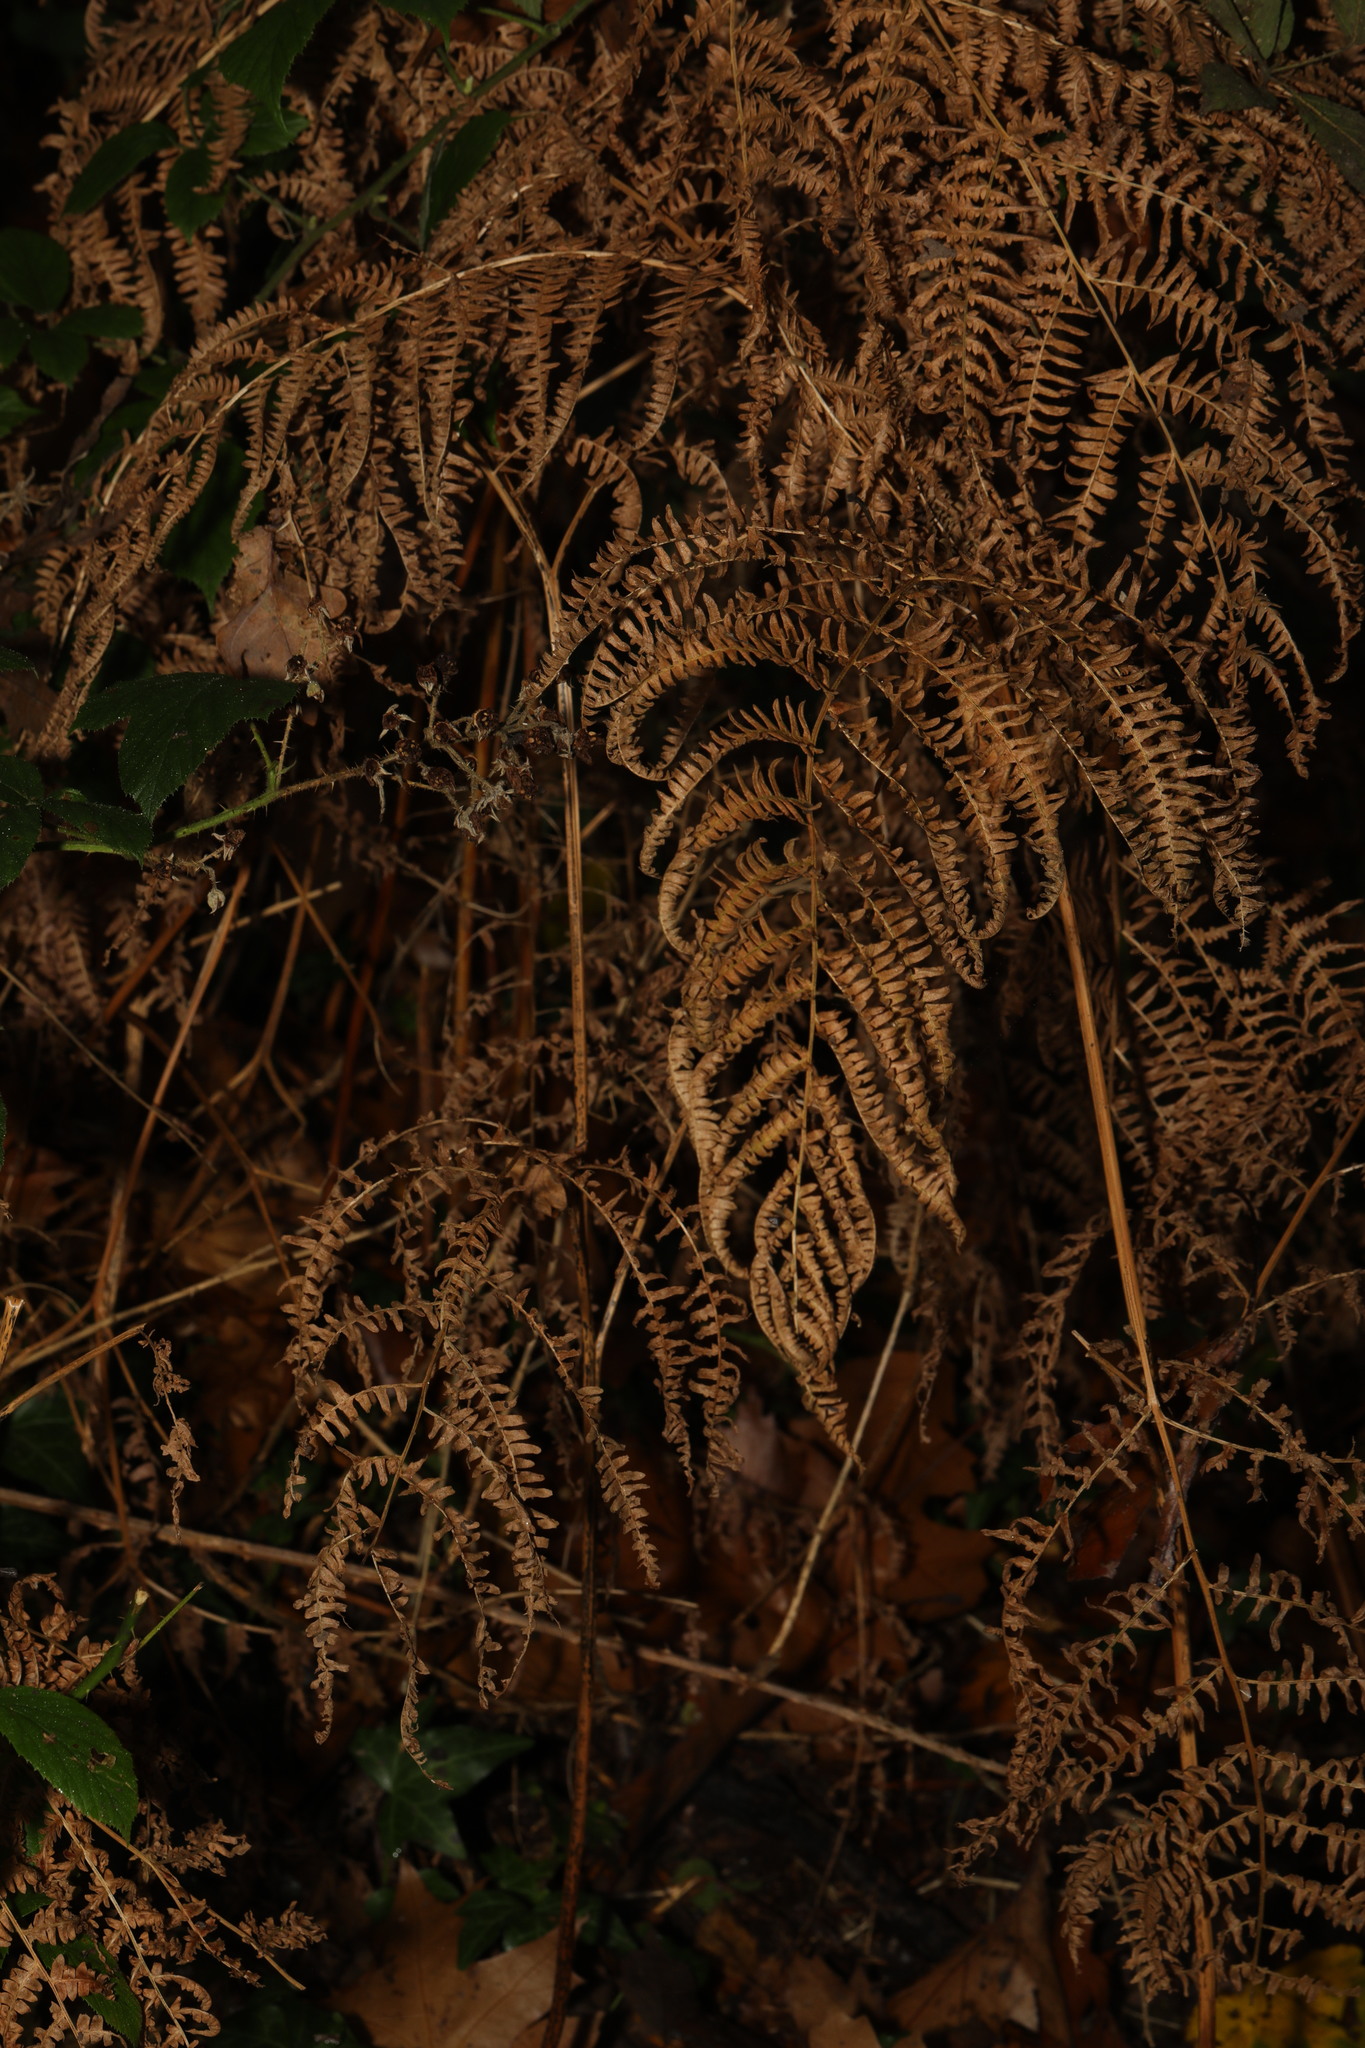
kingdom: Plantae
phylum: Tracheophyta
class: Polypodiopsida
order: Polypodiales
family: Dennstaedtiaceae
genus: Pteridium
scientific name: Pteridium aquilinum
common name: Bracken
